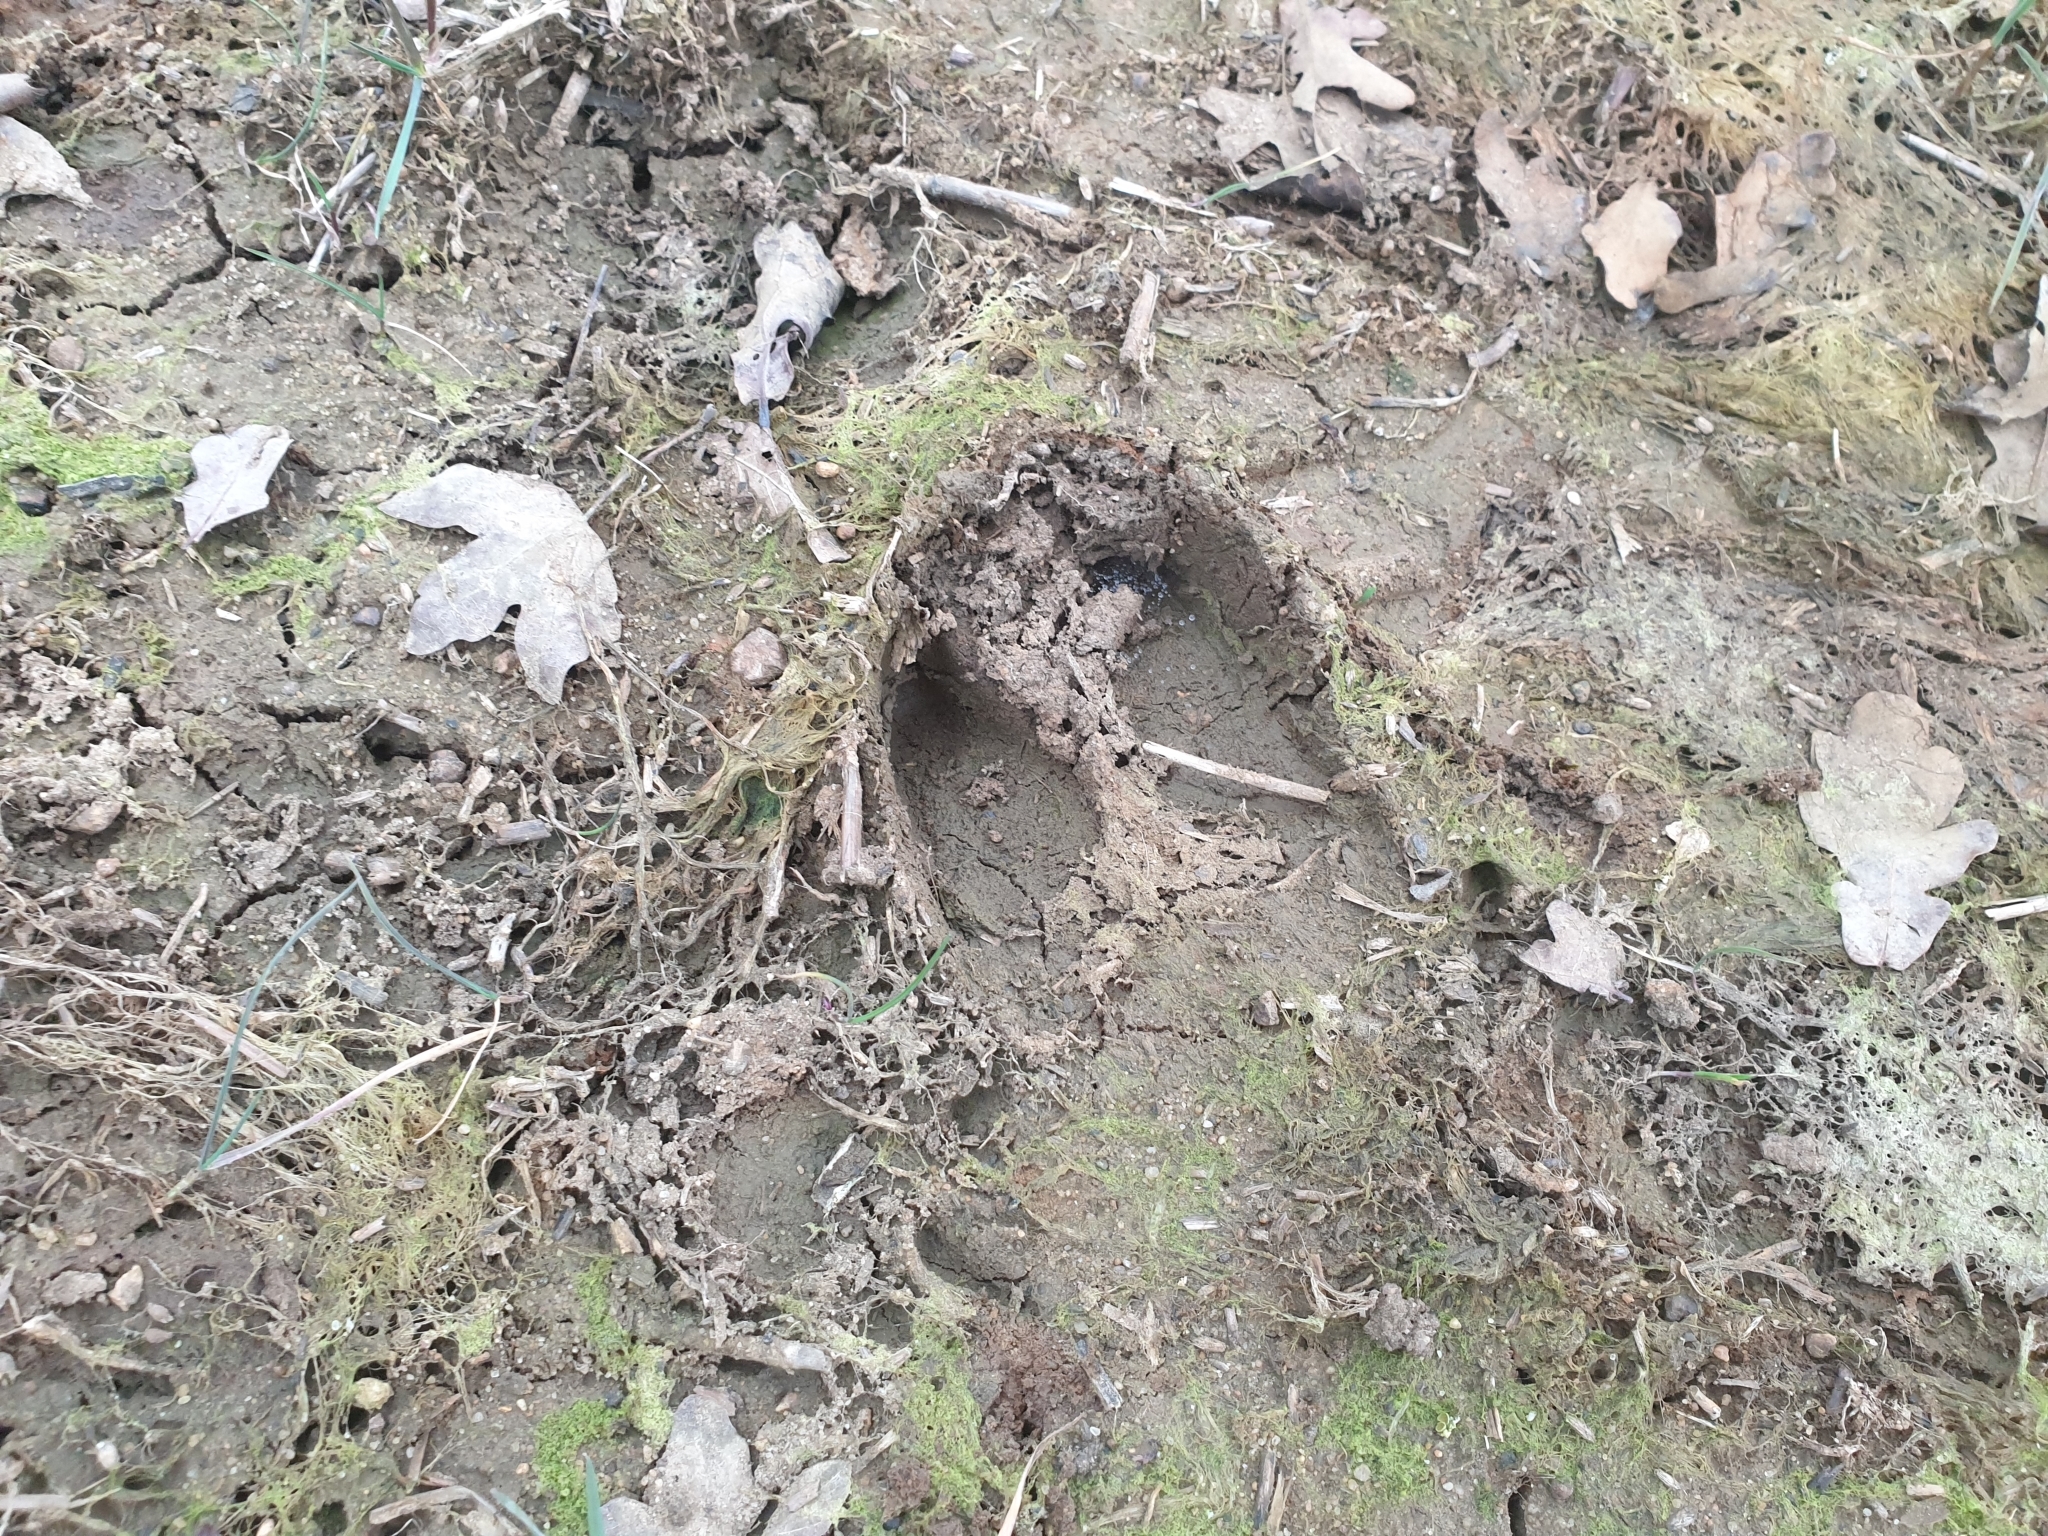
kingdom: Animalia
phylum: Chordata
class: Mammalia
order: Artiodactyla
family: Suidae
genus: Sus
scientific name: Sus scrofa
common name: Wild boar
